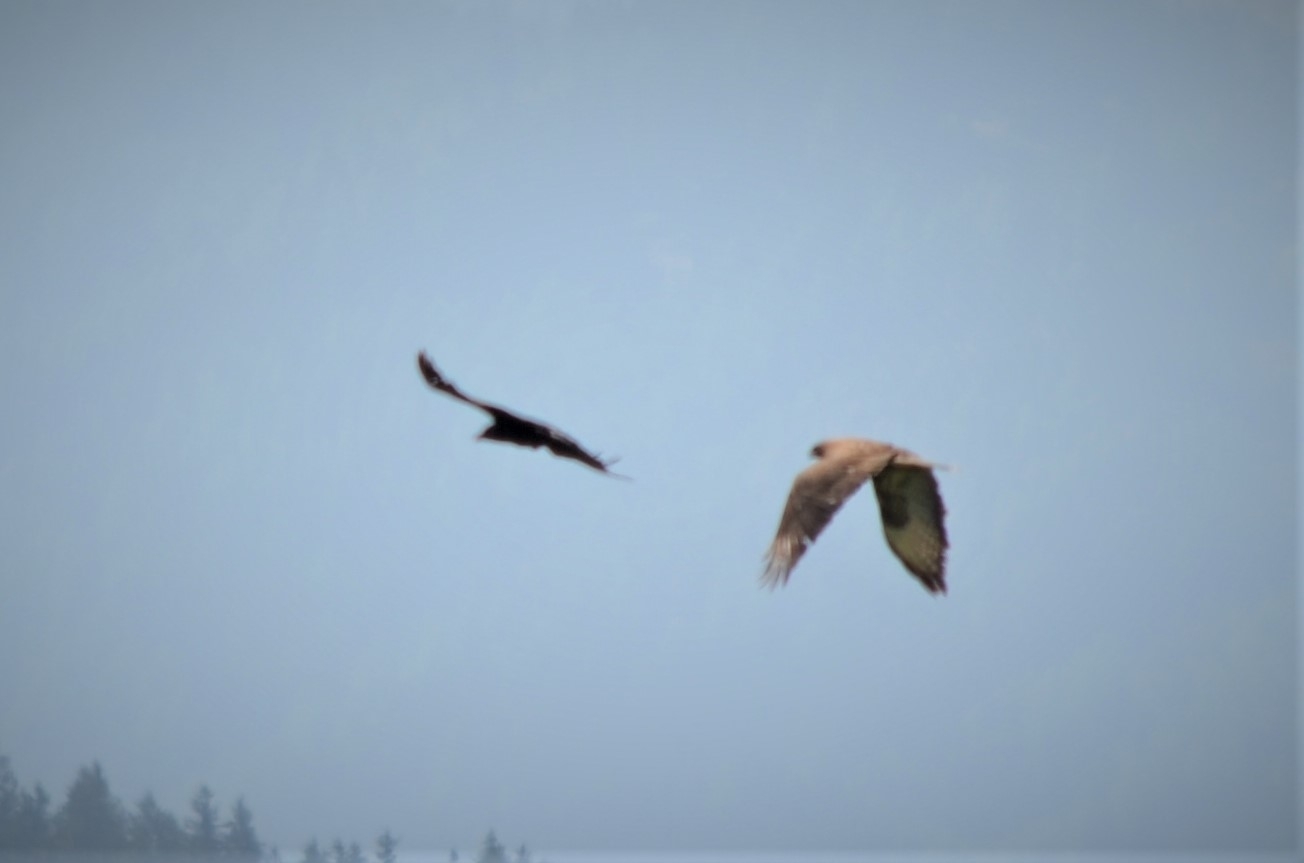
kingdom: Animalia
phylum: Chordata
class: Aves
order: Accipitriformes
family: Accipitridae
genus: Buteo
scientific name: Buteo buteo
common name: Common buzzard
